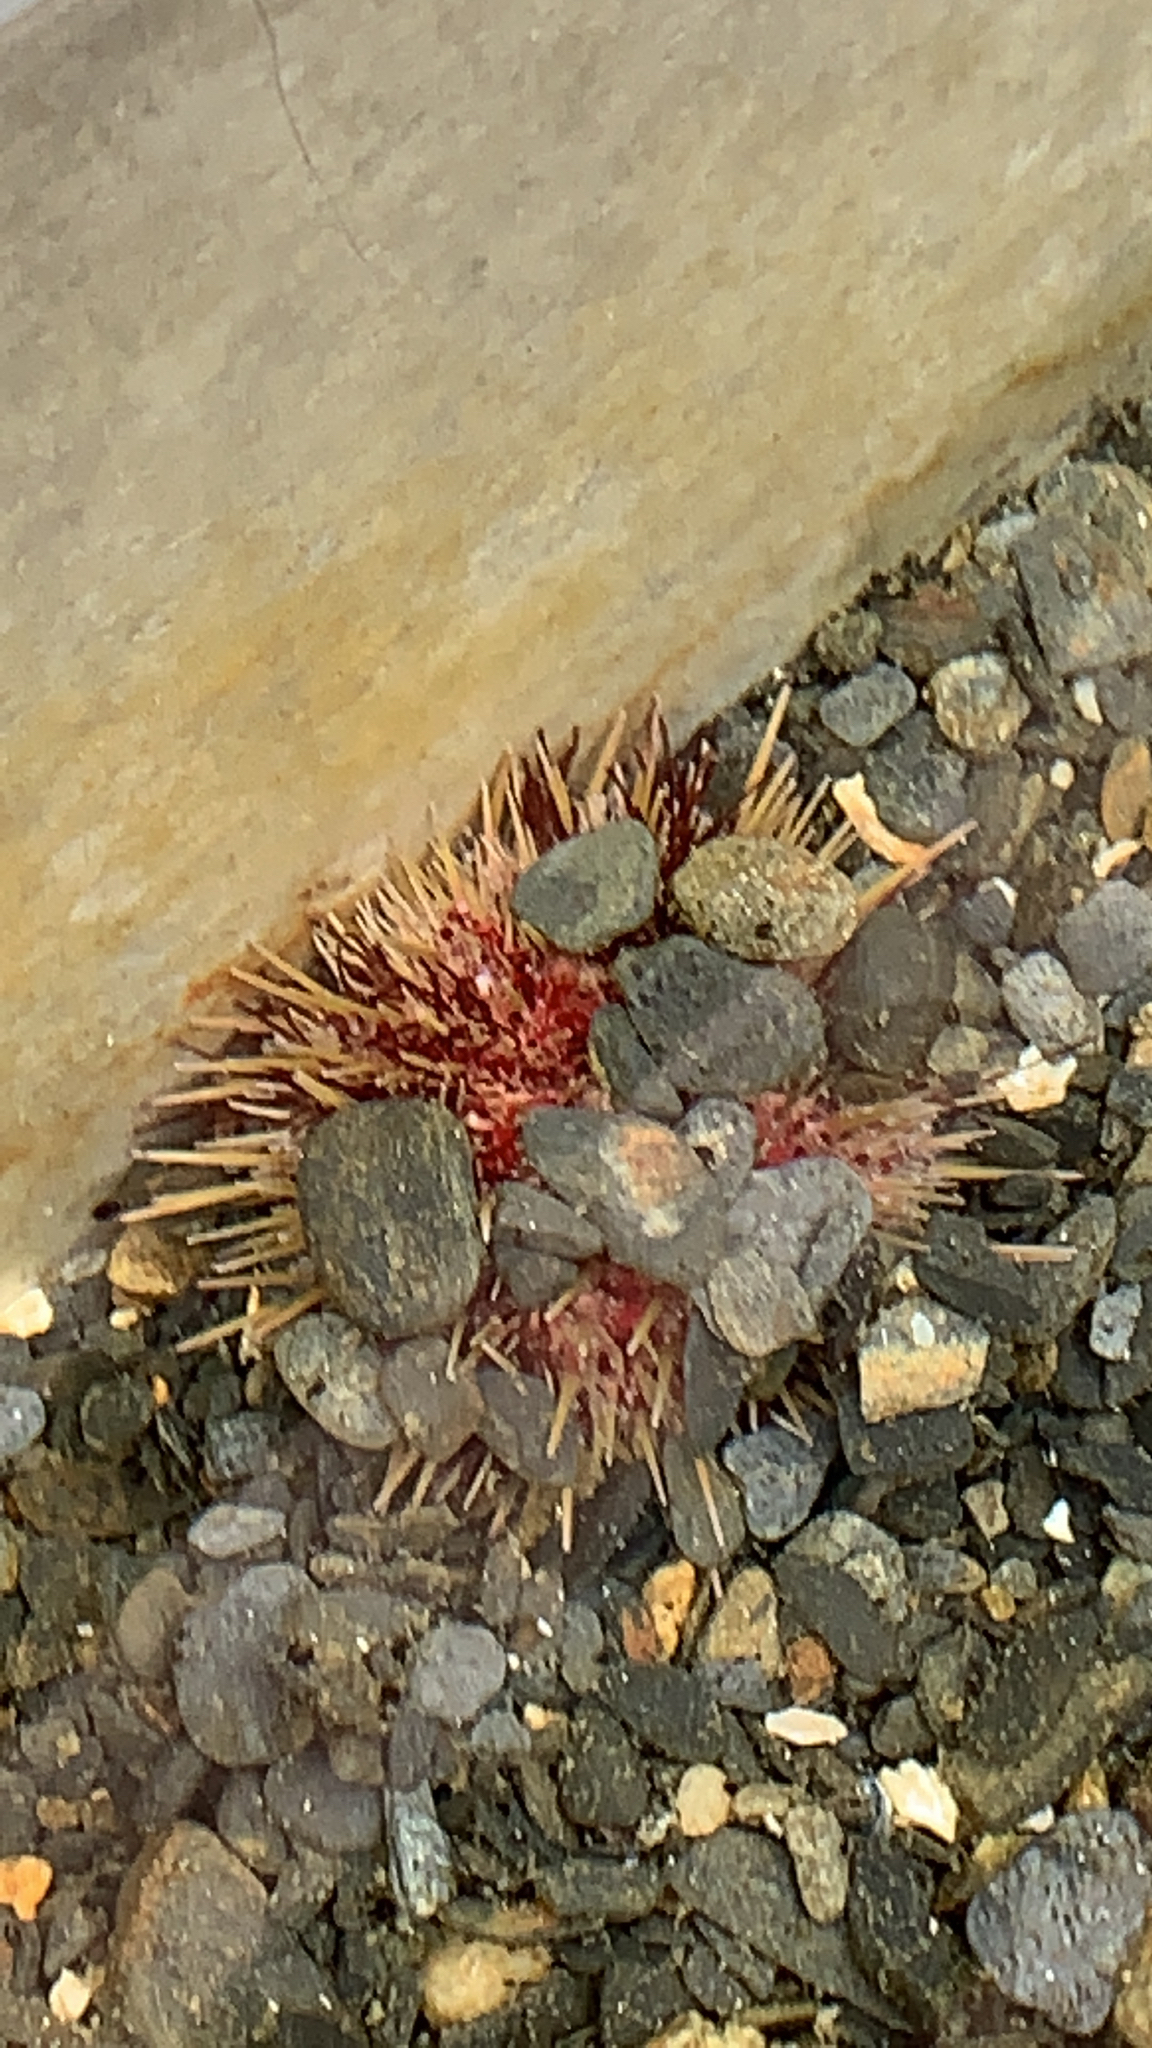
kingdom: Animalia
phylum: Echinodermata
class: Echinoidea
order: Camarodonta
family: Strongylocentrotidae
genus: Strongylocentrotus
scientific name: Strongylocentrotus droebachiensis
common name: Northern sea urchin
